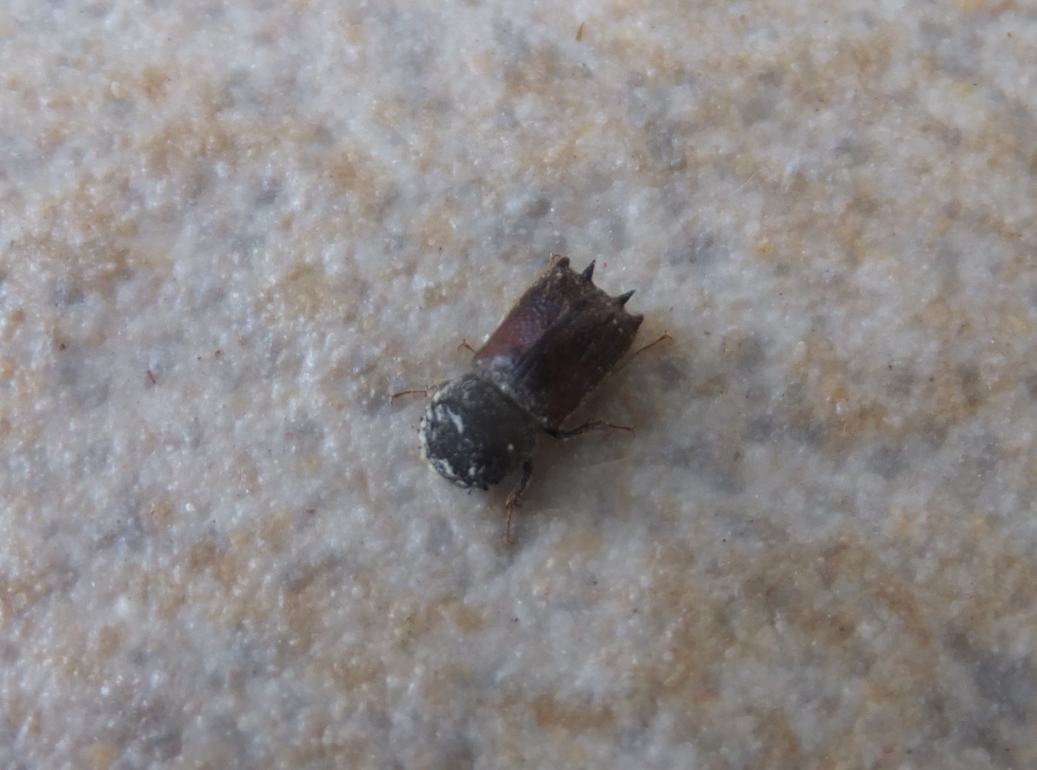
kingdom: Animalia
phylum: Arthropoda
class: Insecta
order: Coleoptera
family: Bostrichidae
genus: Sinoxylon
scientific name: Sinoxylon sexdentatum
